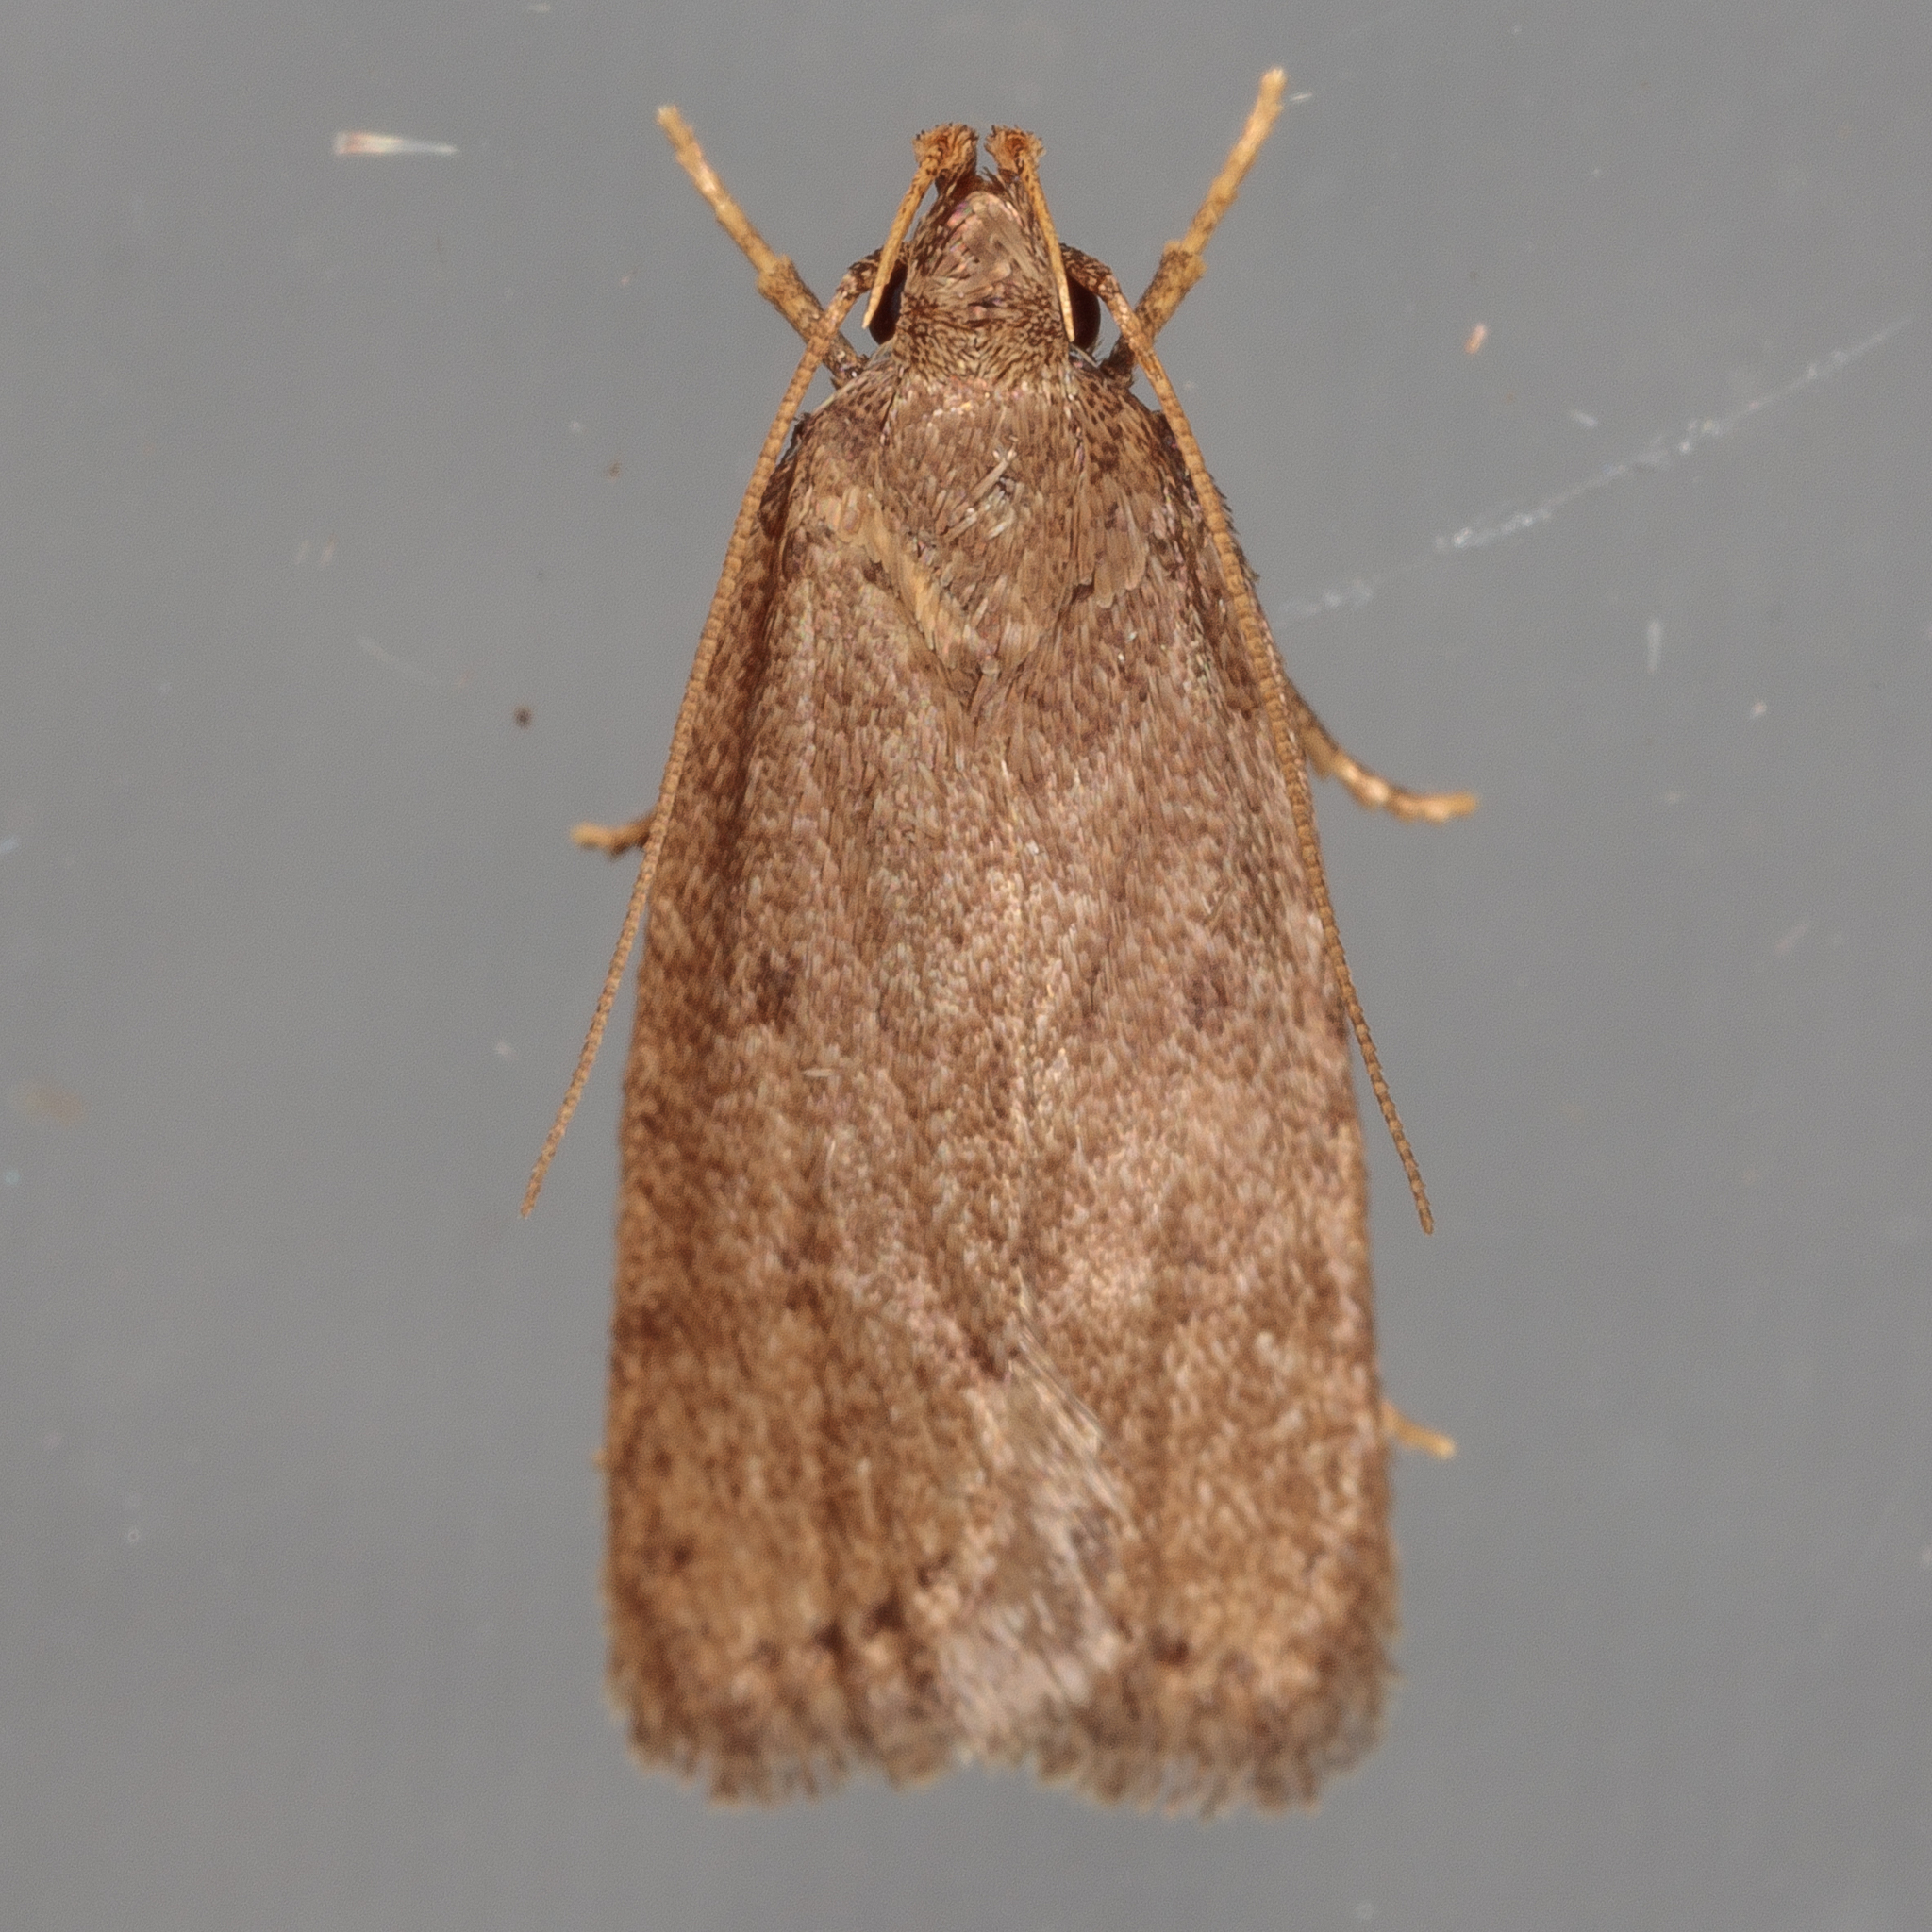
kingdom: Animalia
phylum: Arthropoda
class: Insecta
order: Lepidoptera
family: Autostichidae
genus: Autosticha
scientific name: Autosticha kyotensis
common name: Kyoto moth
